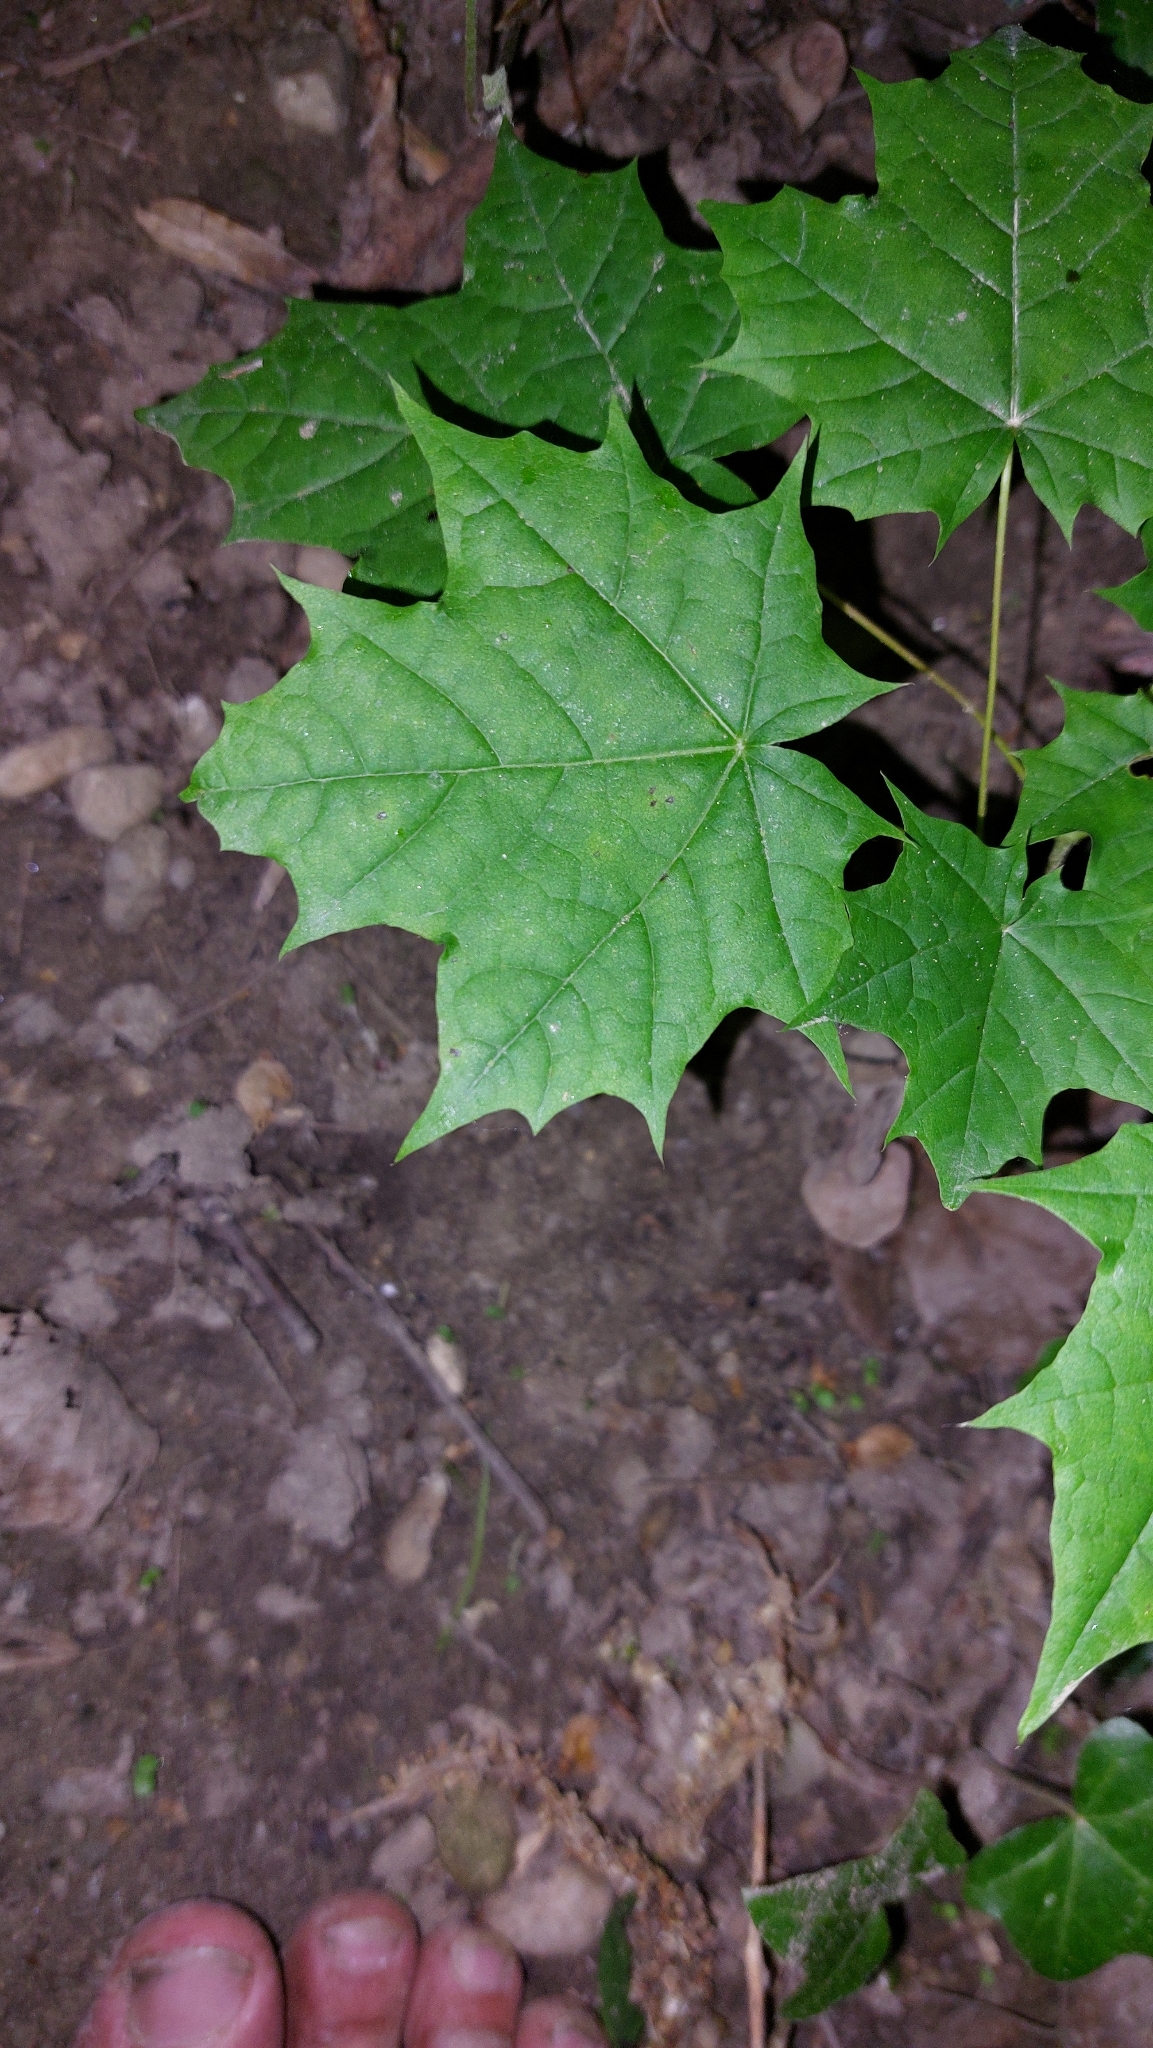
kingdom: Plantae
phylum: Tracheophyta
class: Magnoliopsida
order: Sapindales
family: Sapindaceae
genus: Acer
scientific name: Acer platanoides
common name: Norway maple
